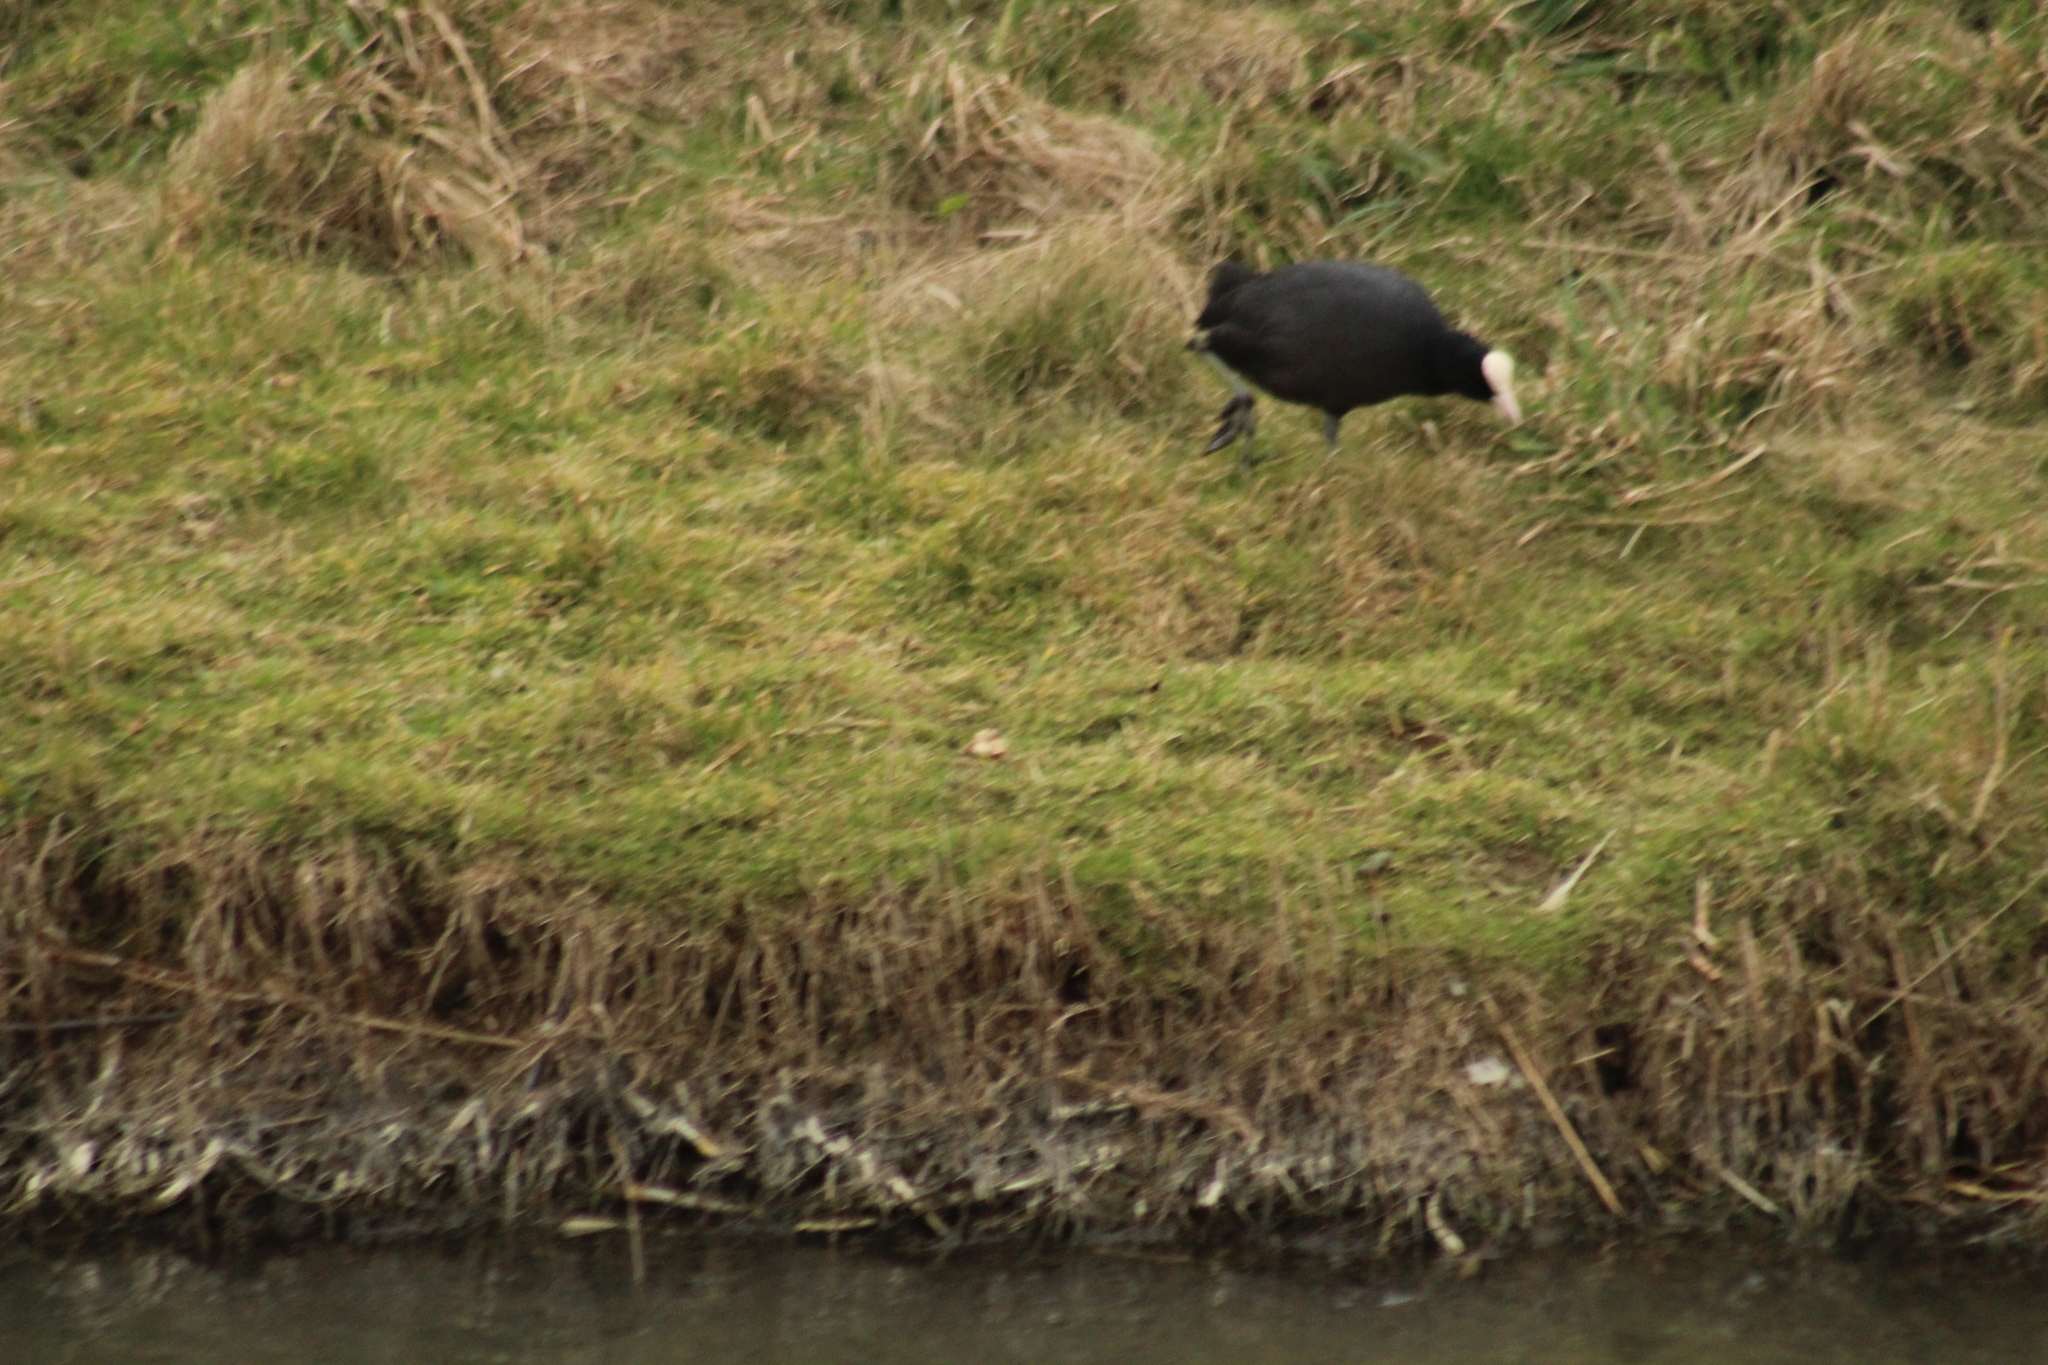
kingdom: Animalia
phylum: Chordata
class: Aves
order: Gruiformes
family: Rallidae
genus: Fulica
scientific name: Fulica atra
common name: Eurasian coot
